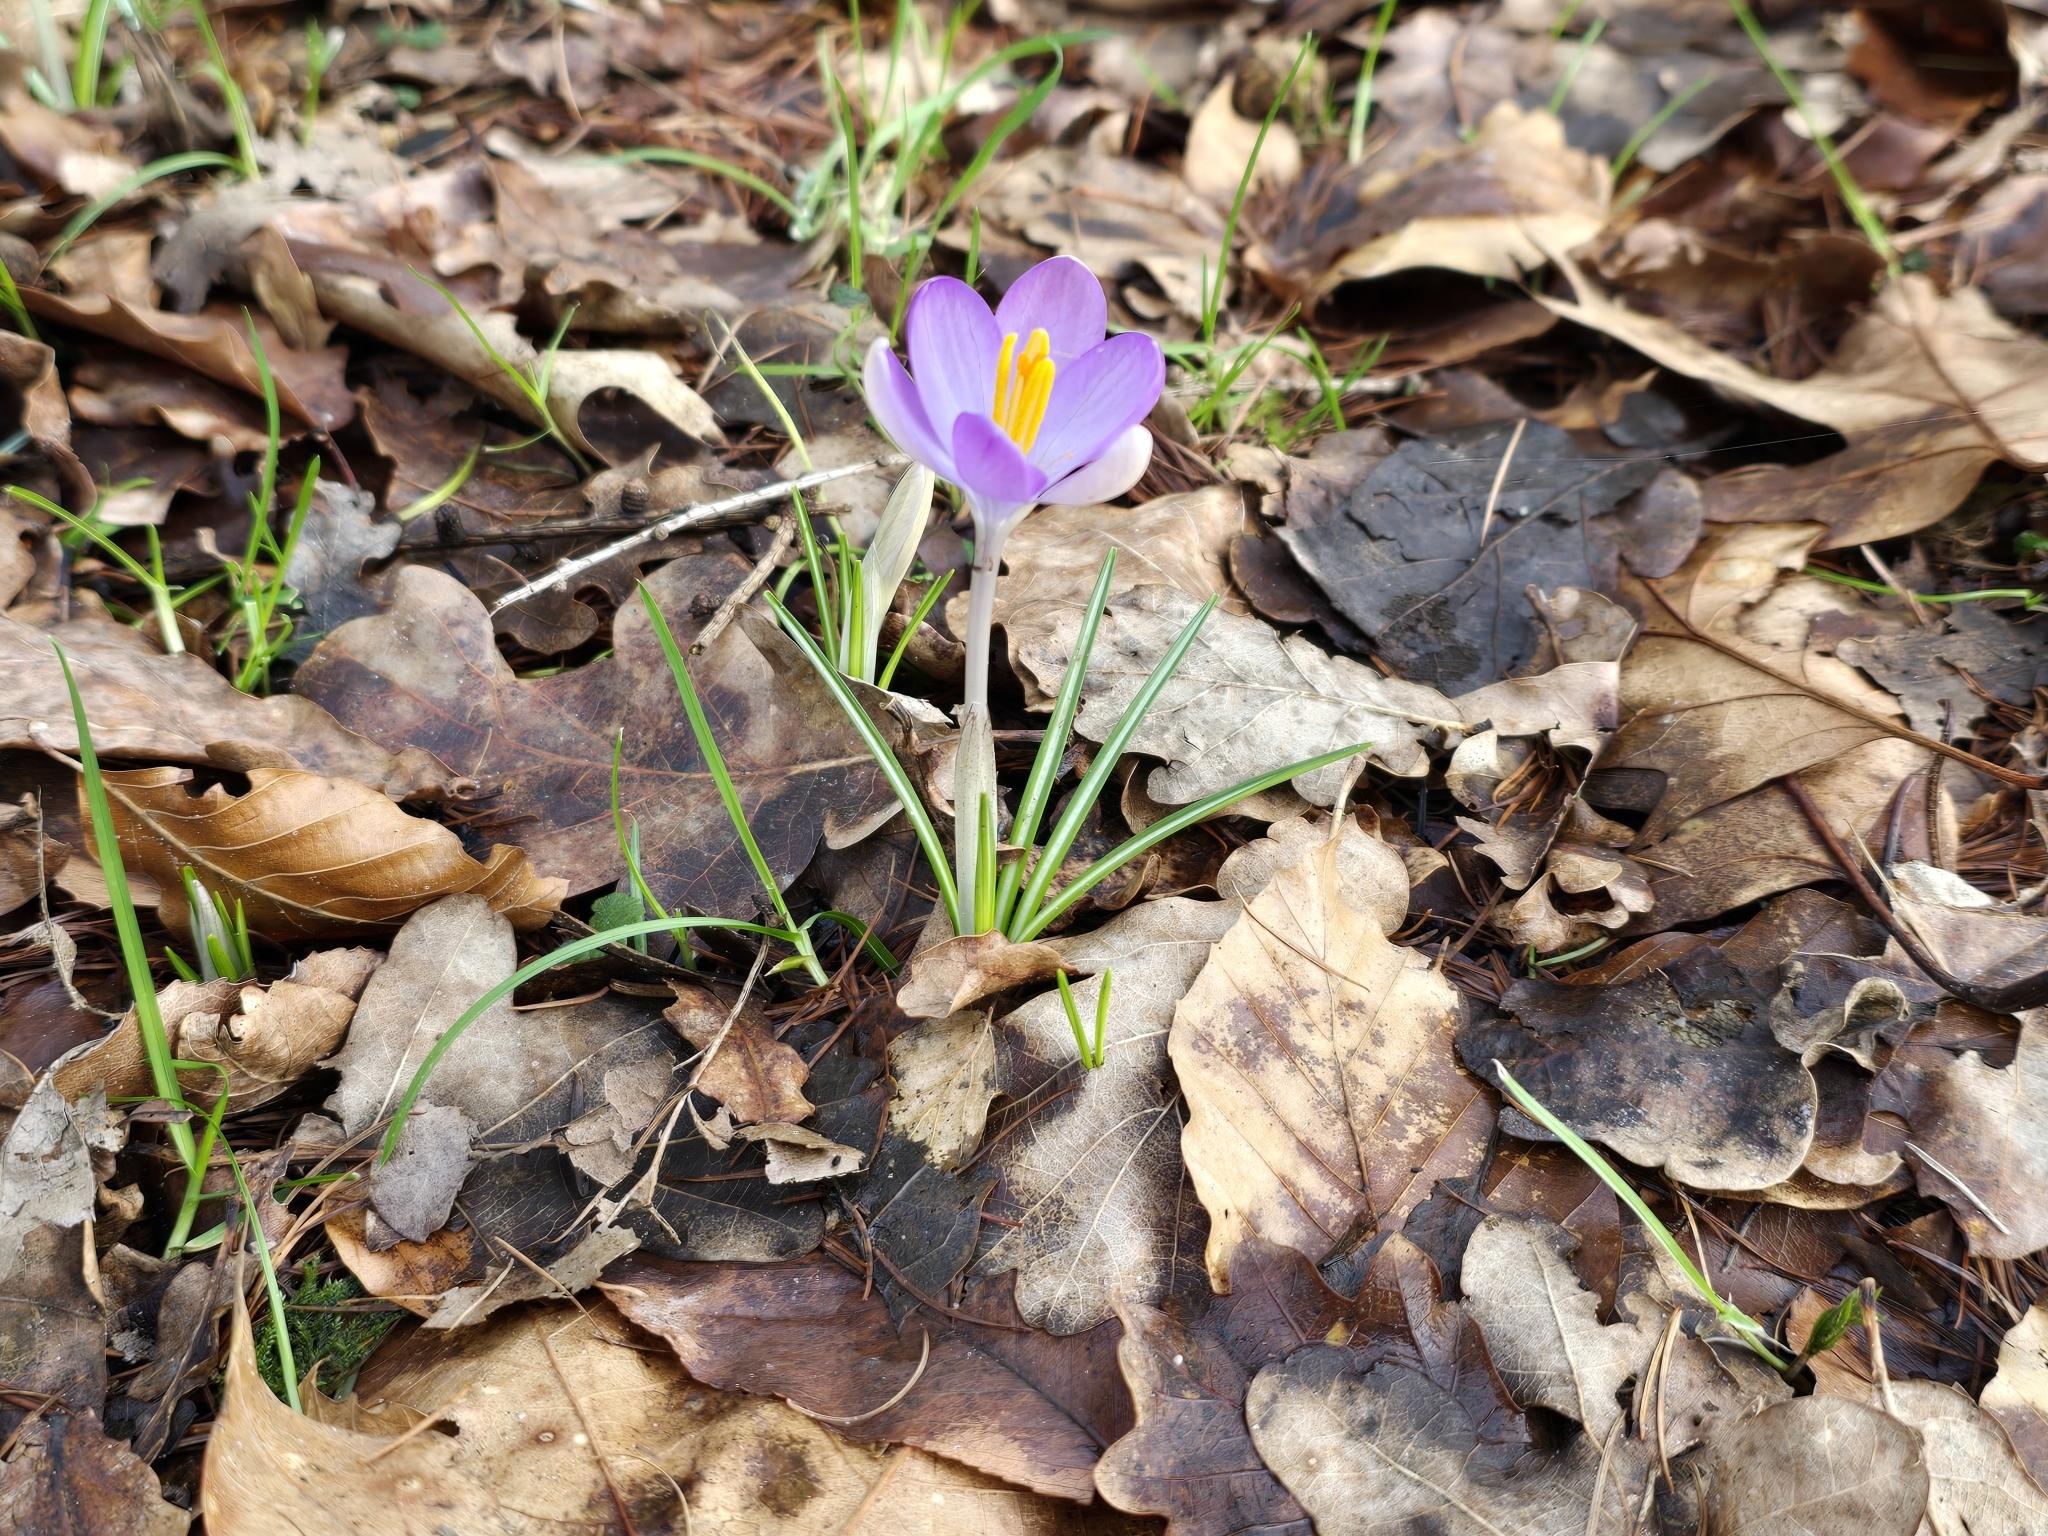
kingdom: Plantae
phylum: Tracheophyta
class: Liliopsida
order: Asparagales
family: Iridaceae
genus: Crocus
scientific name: Crocus tommasinianus
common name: Early crocus
